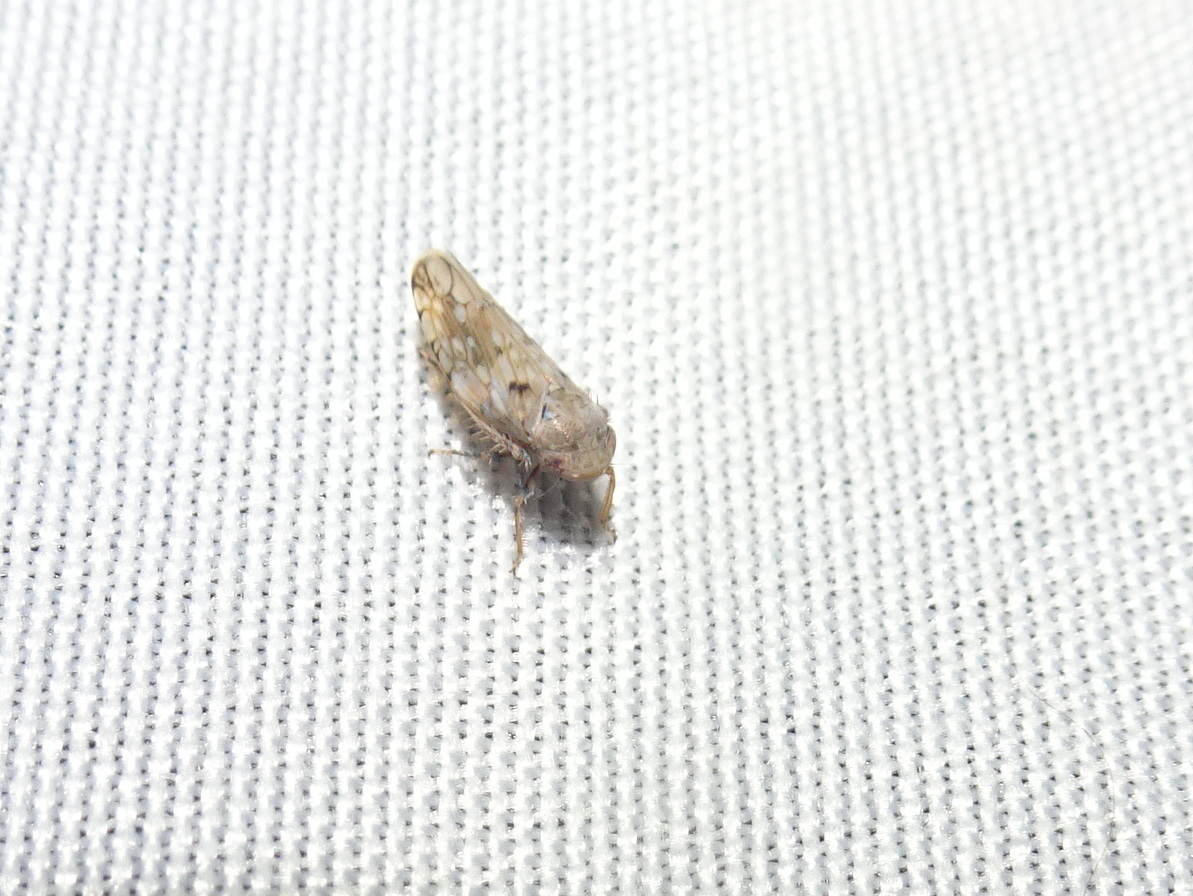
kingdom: Animalia
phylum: Arthropoda
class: Insecta
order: Hemiptera
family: Cicadellidae
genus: Menosoma
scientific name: Menosoma cinctum
